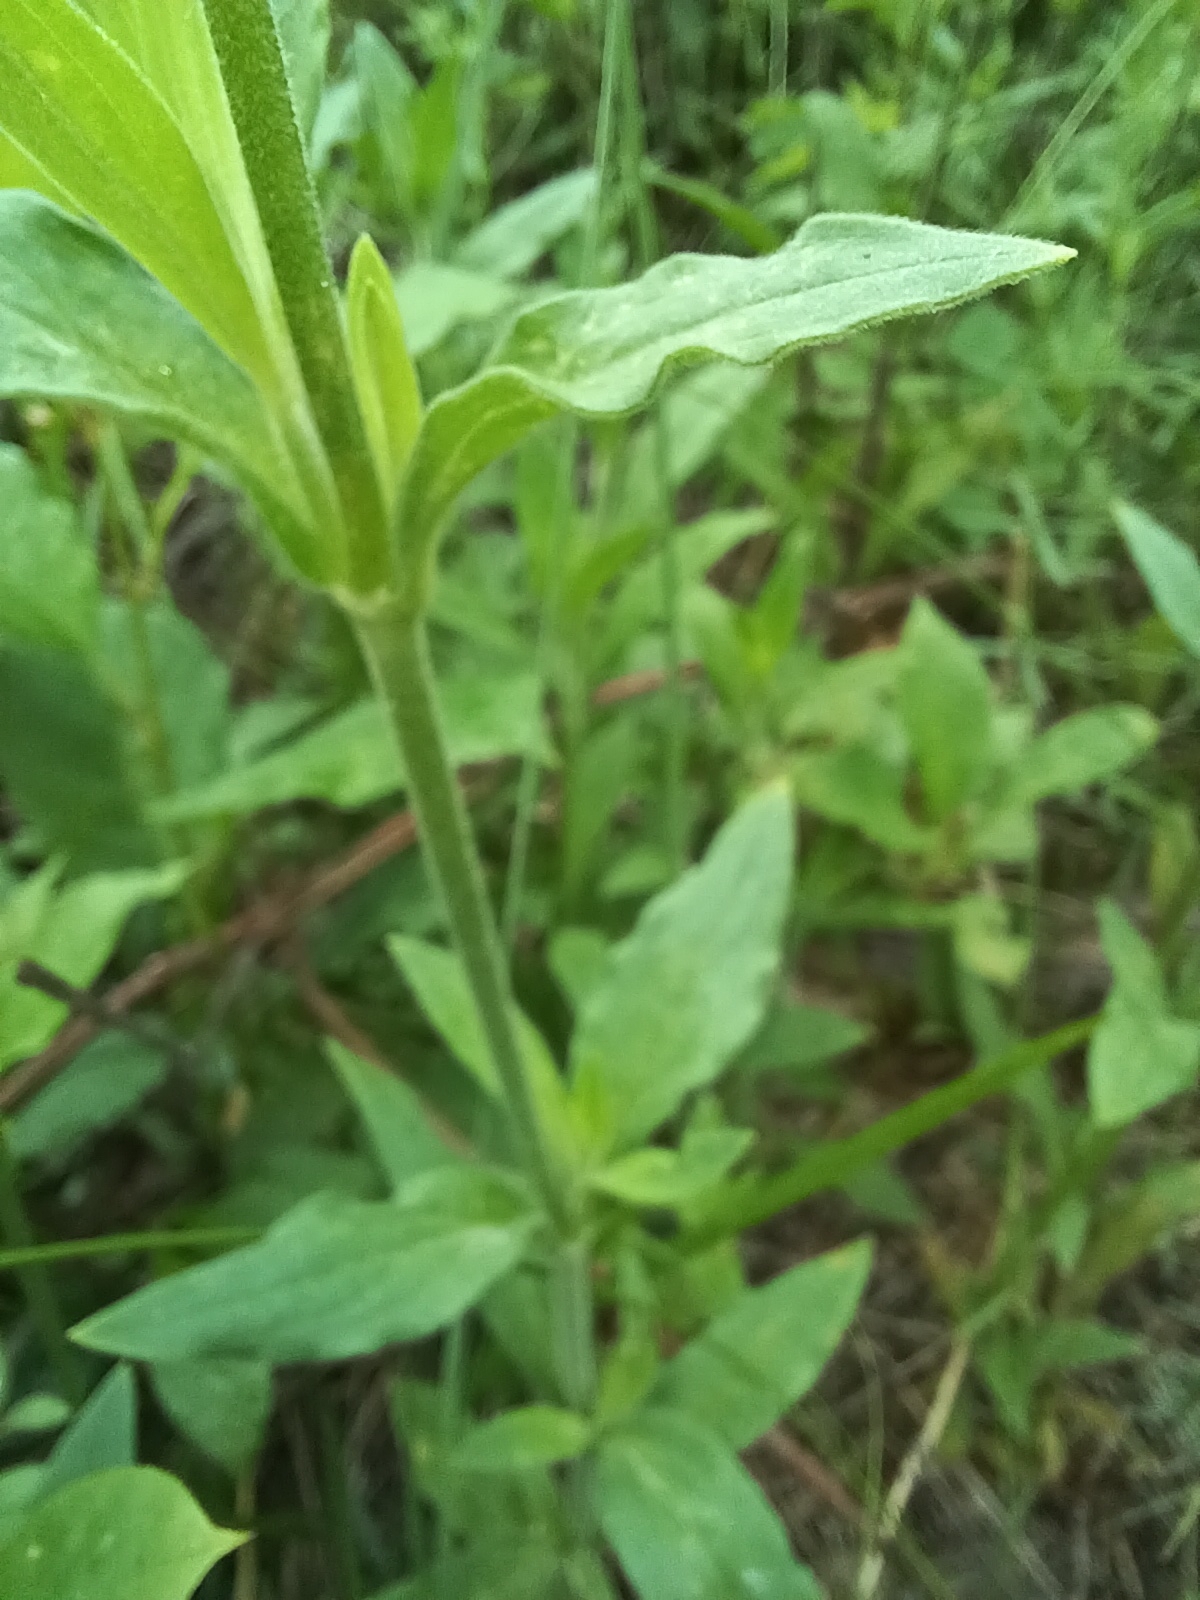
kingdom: Plantae
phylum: Tracheophyta
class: Magnoliopsida
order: Caryophyllales
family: Caryophyllaceae
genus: Silene
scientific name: Silene latifolia
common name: White campion
